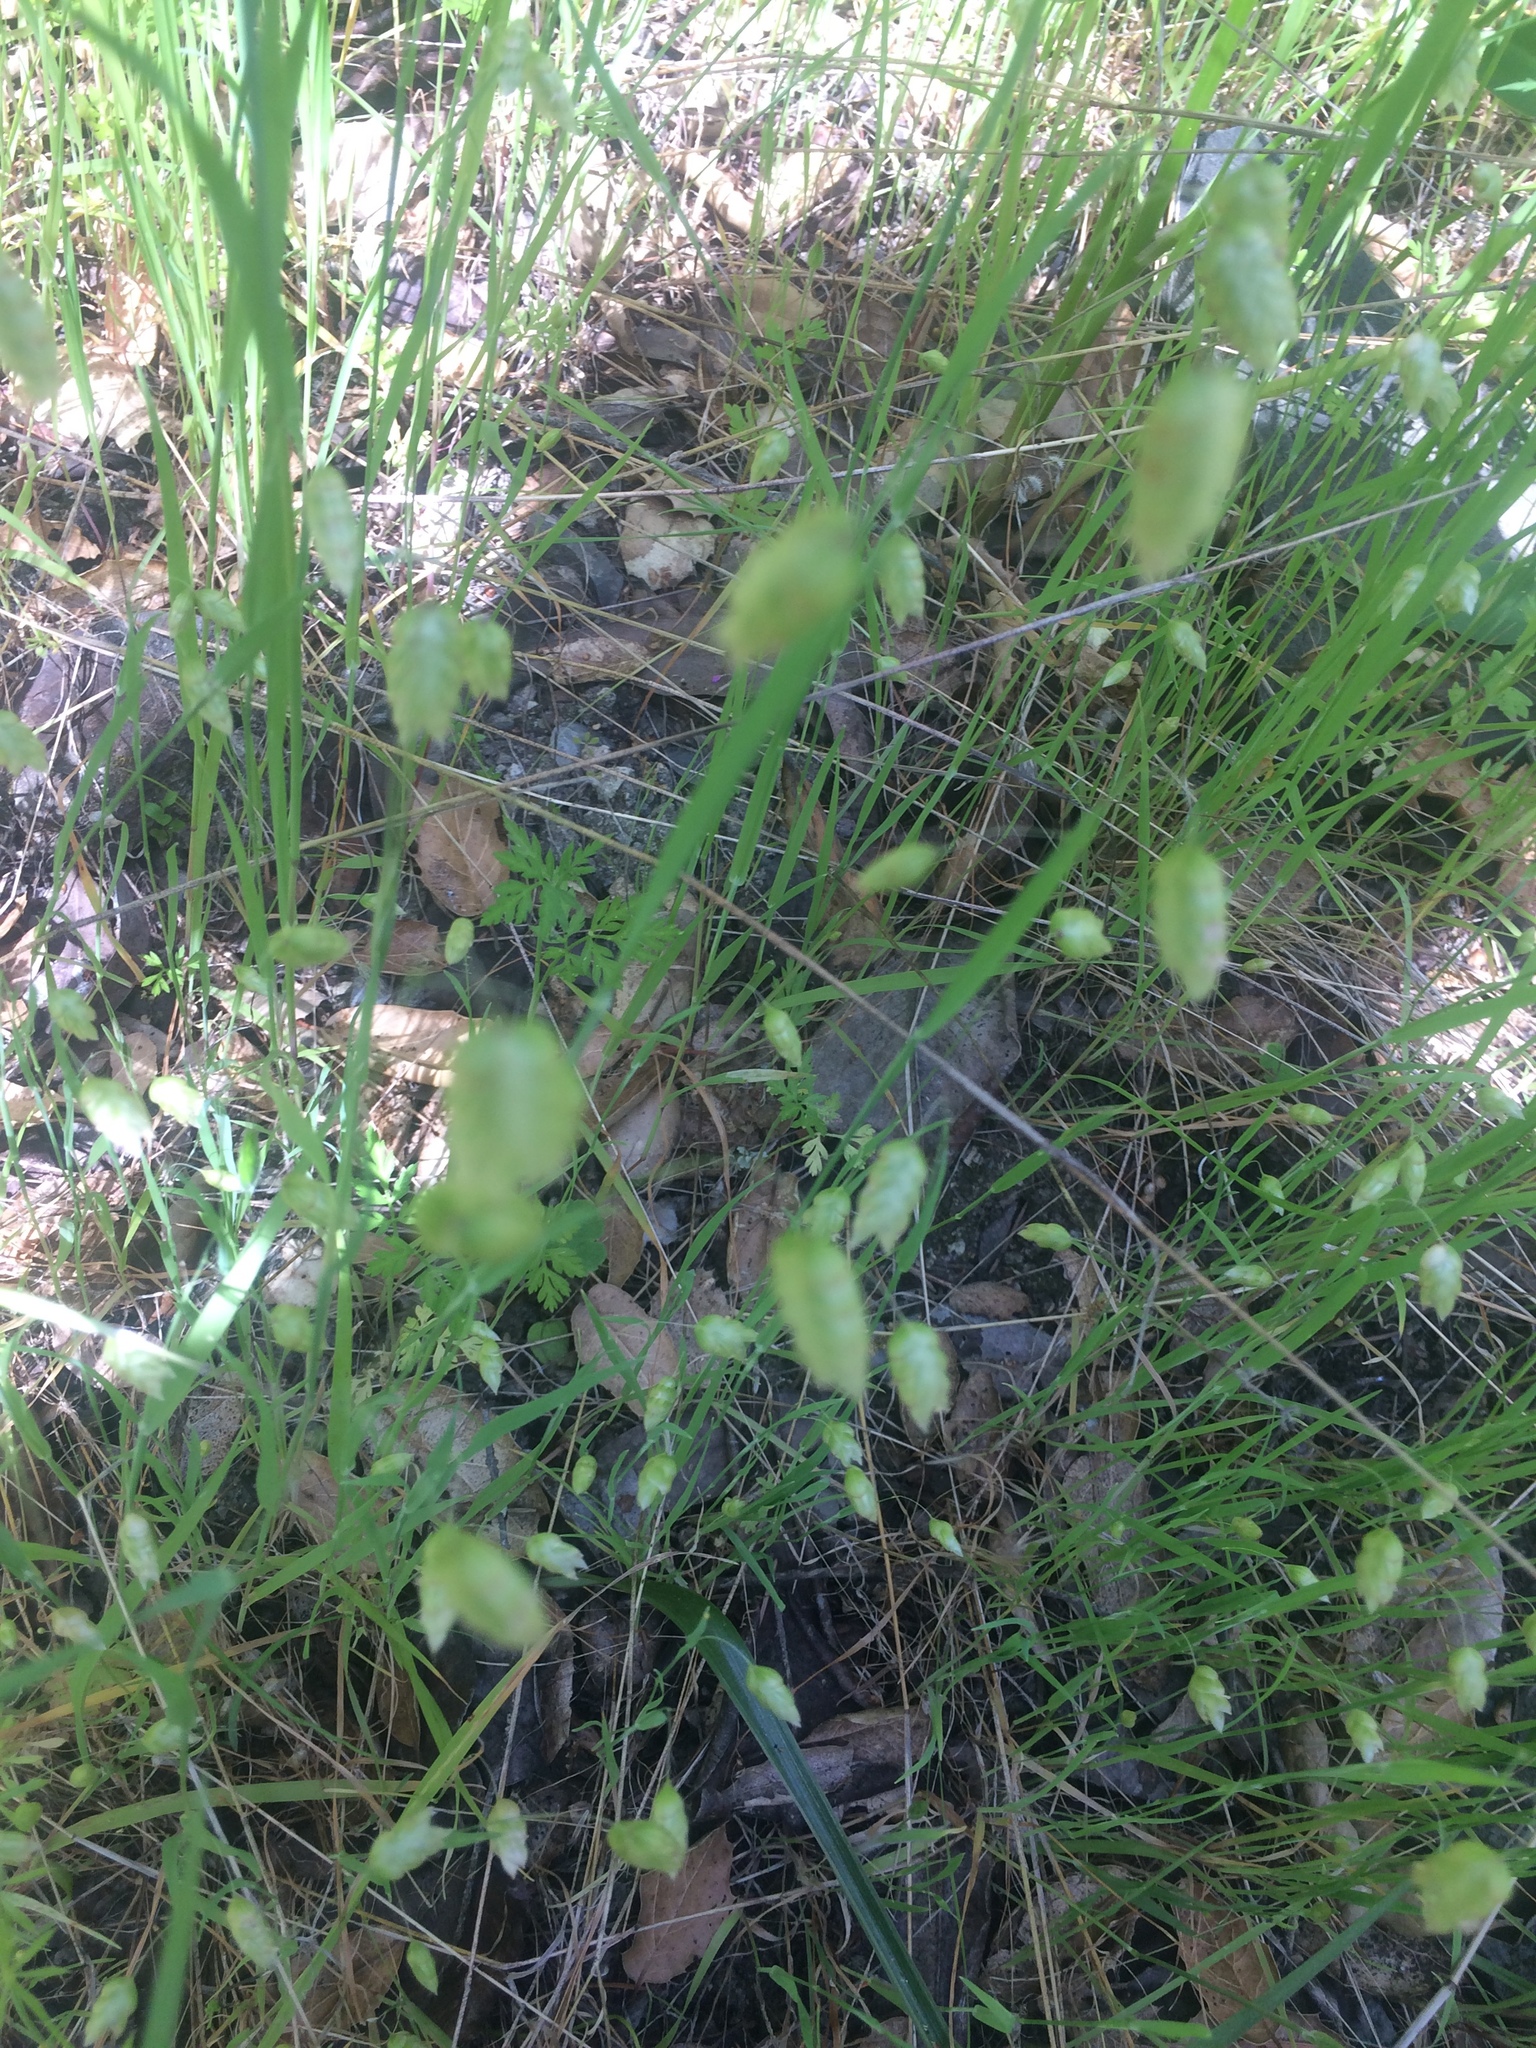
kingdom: Plantae
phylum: Tracheophyta
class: Liliopsida
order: Poales
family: Poaceae
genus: Briza
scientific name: Briza maxima
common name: Big quakinggrass
